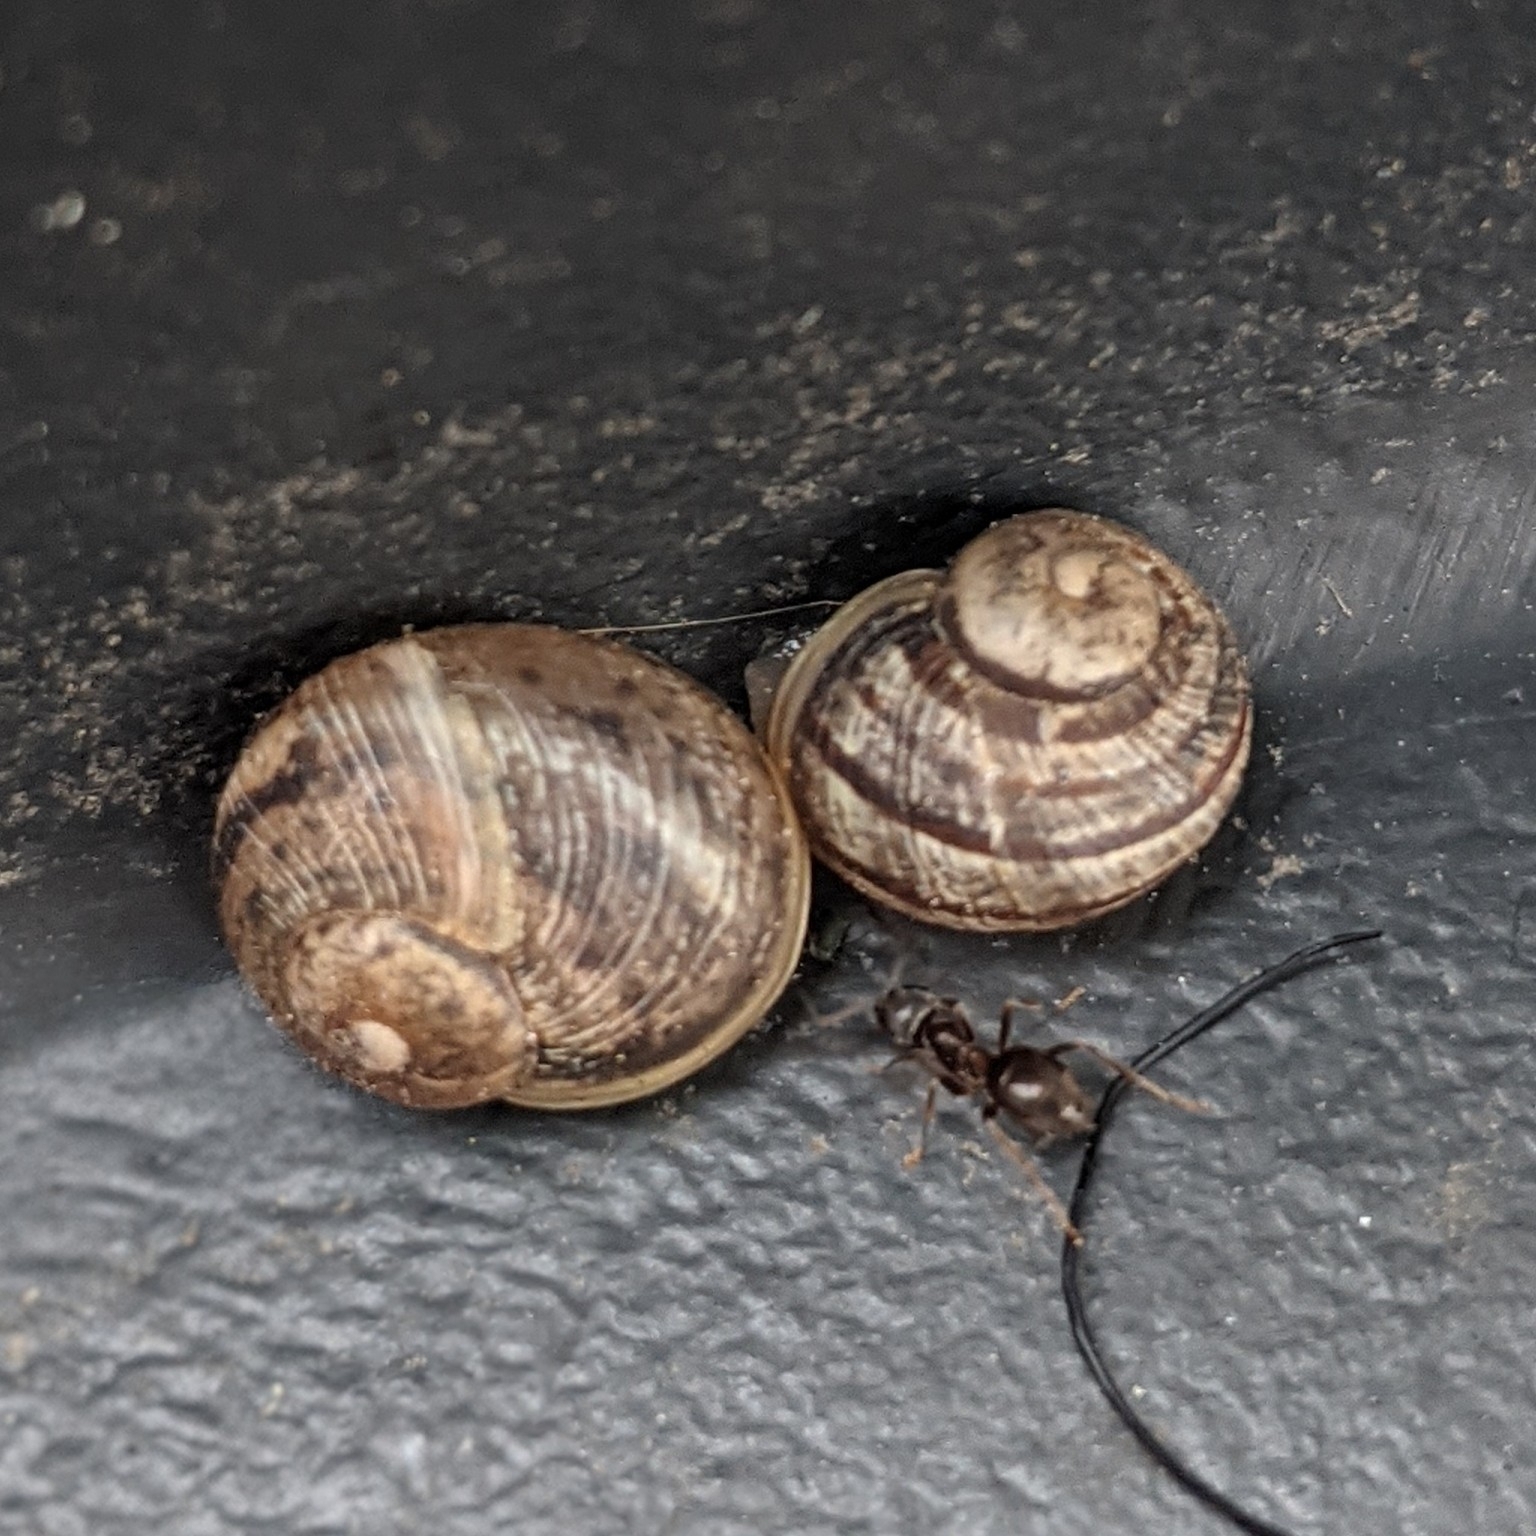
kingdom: Animalia
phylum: Mollusca
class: Gastropoda
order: Stylommatophora
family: Helicidae
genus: Cornu
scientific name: Cornu aspersum
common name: Brown garden snail
